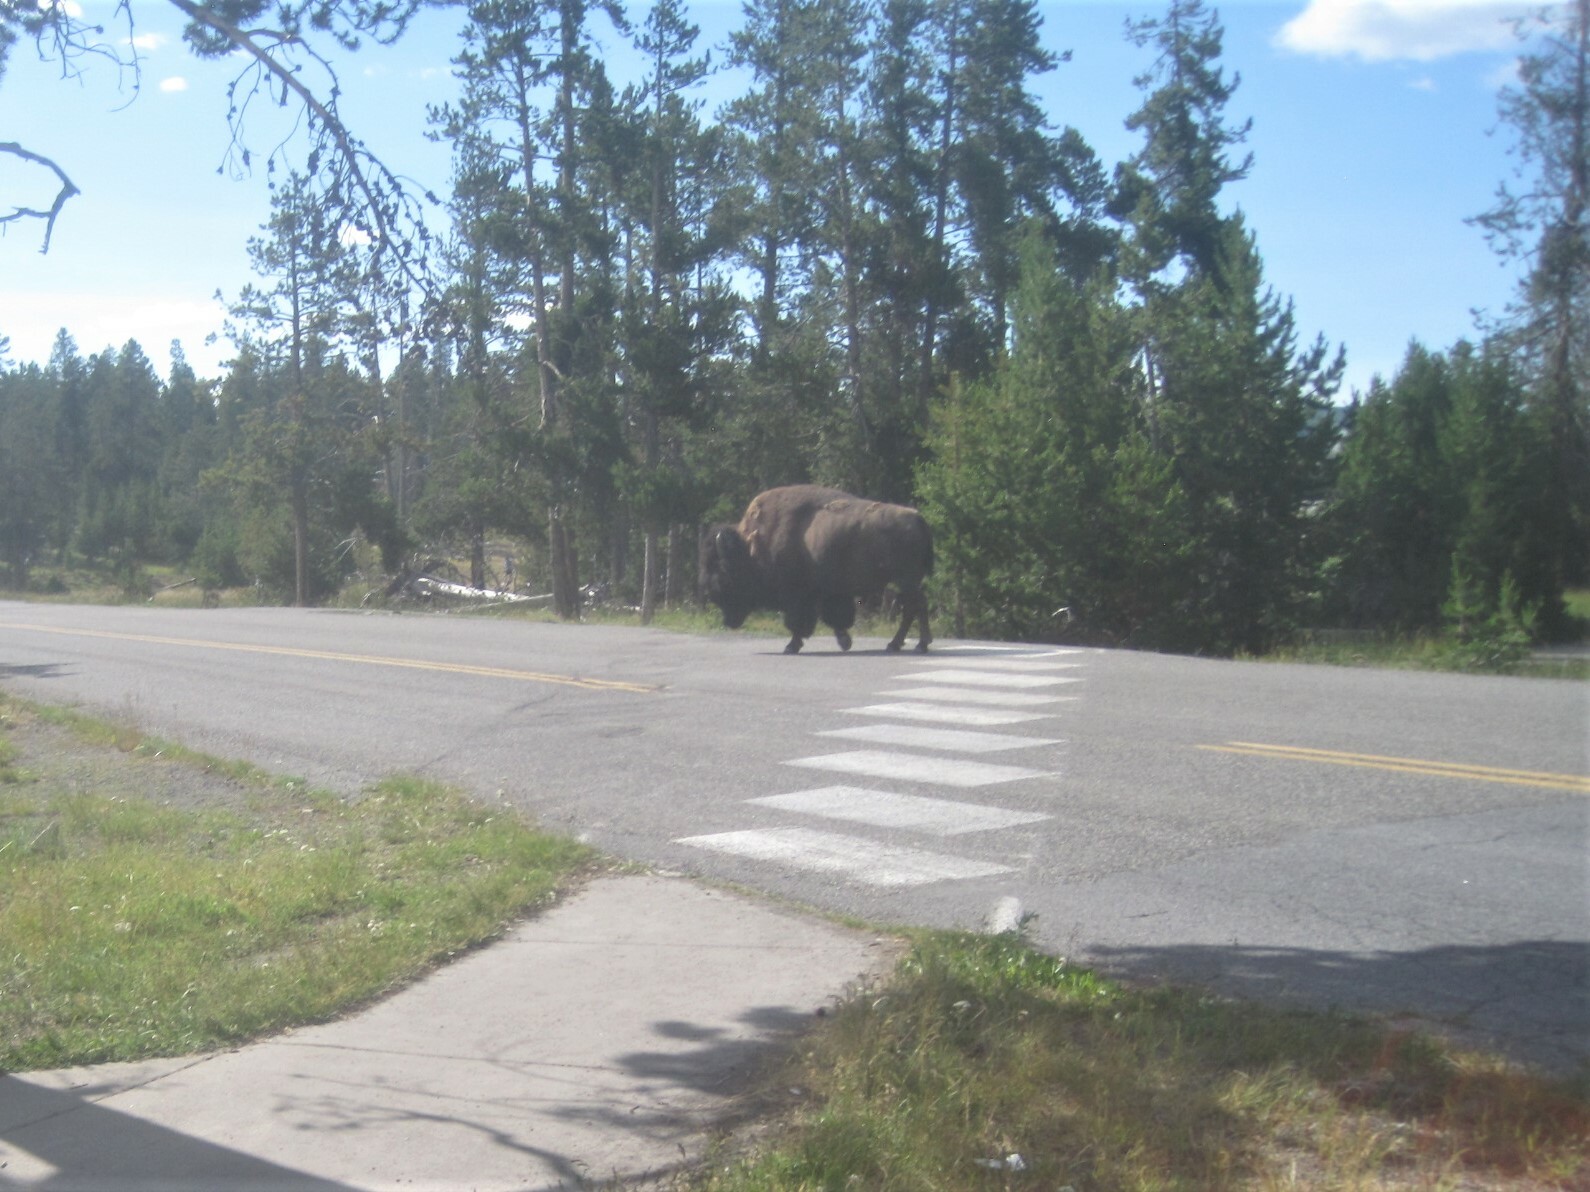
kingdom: Animalia
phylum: Chordata
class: Mammalia
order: Artiodactyla
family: Bovidae
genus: Bison
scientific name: Bison bison
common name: American bison
